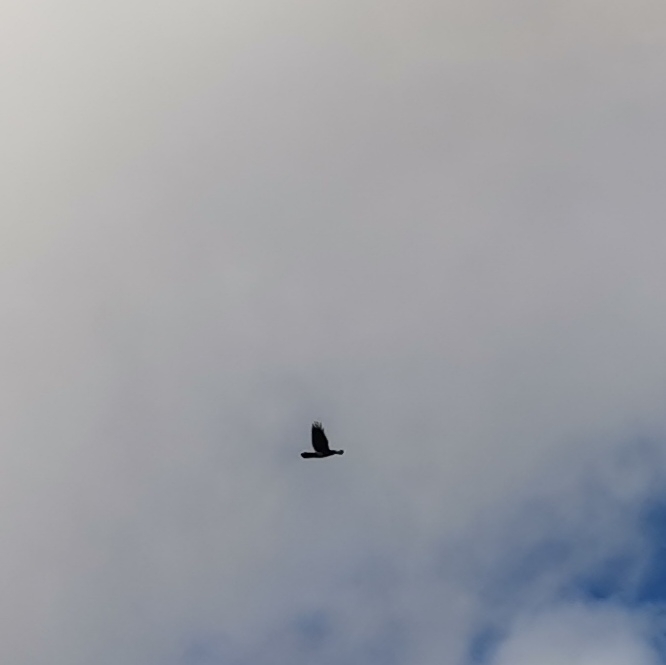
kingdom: Animalia
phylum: Chordata
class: Aves
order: Passeriformes
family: Corvidae
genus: Corvus
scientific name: Corvus corax
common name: Common raven
